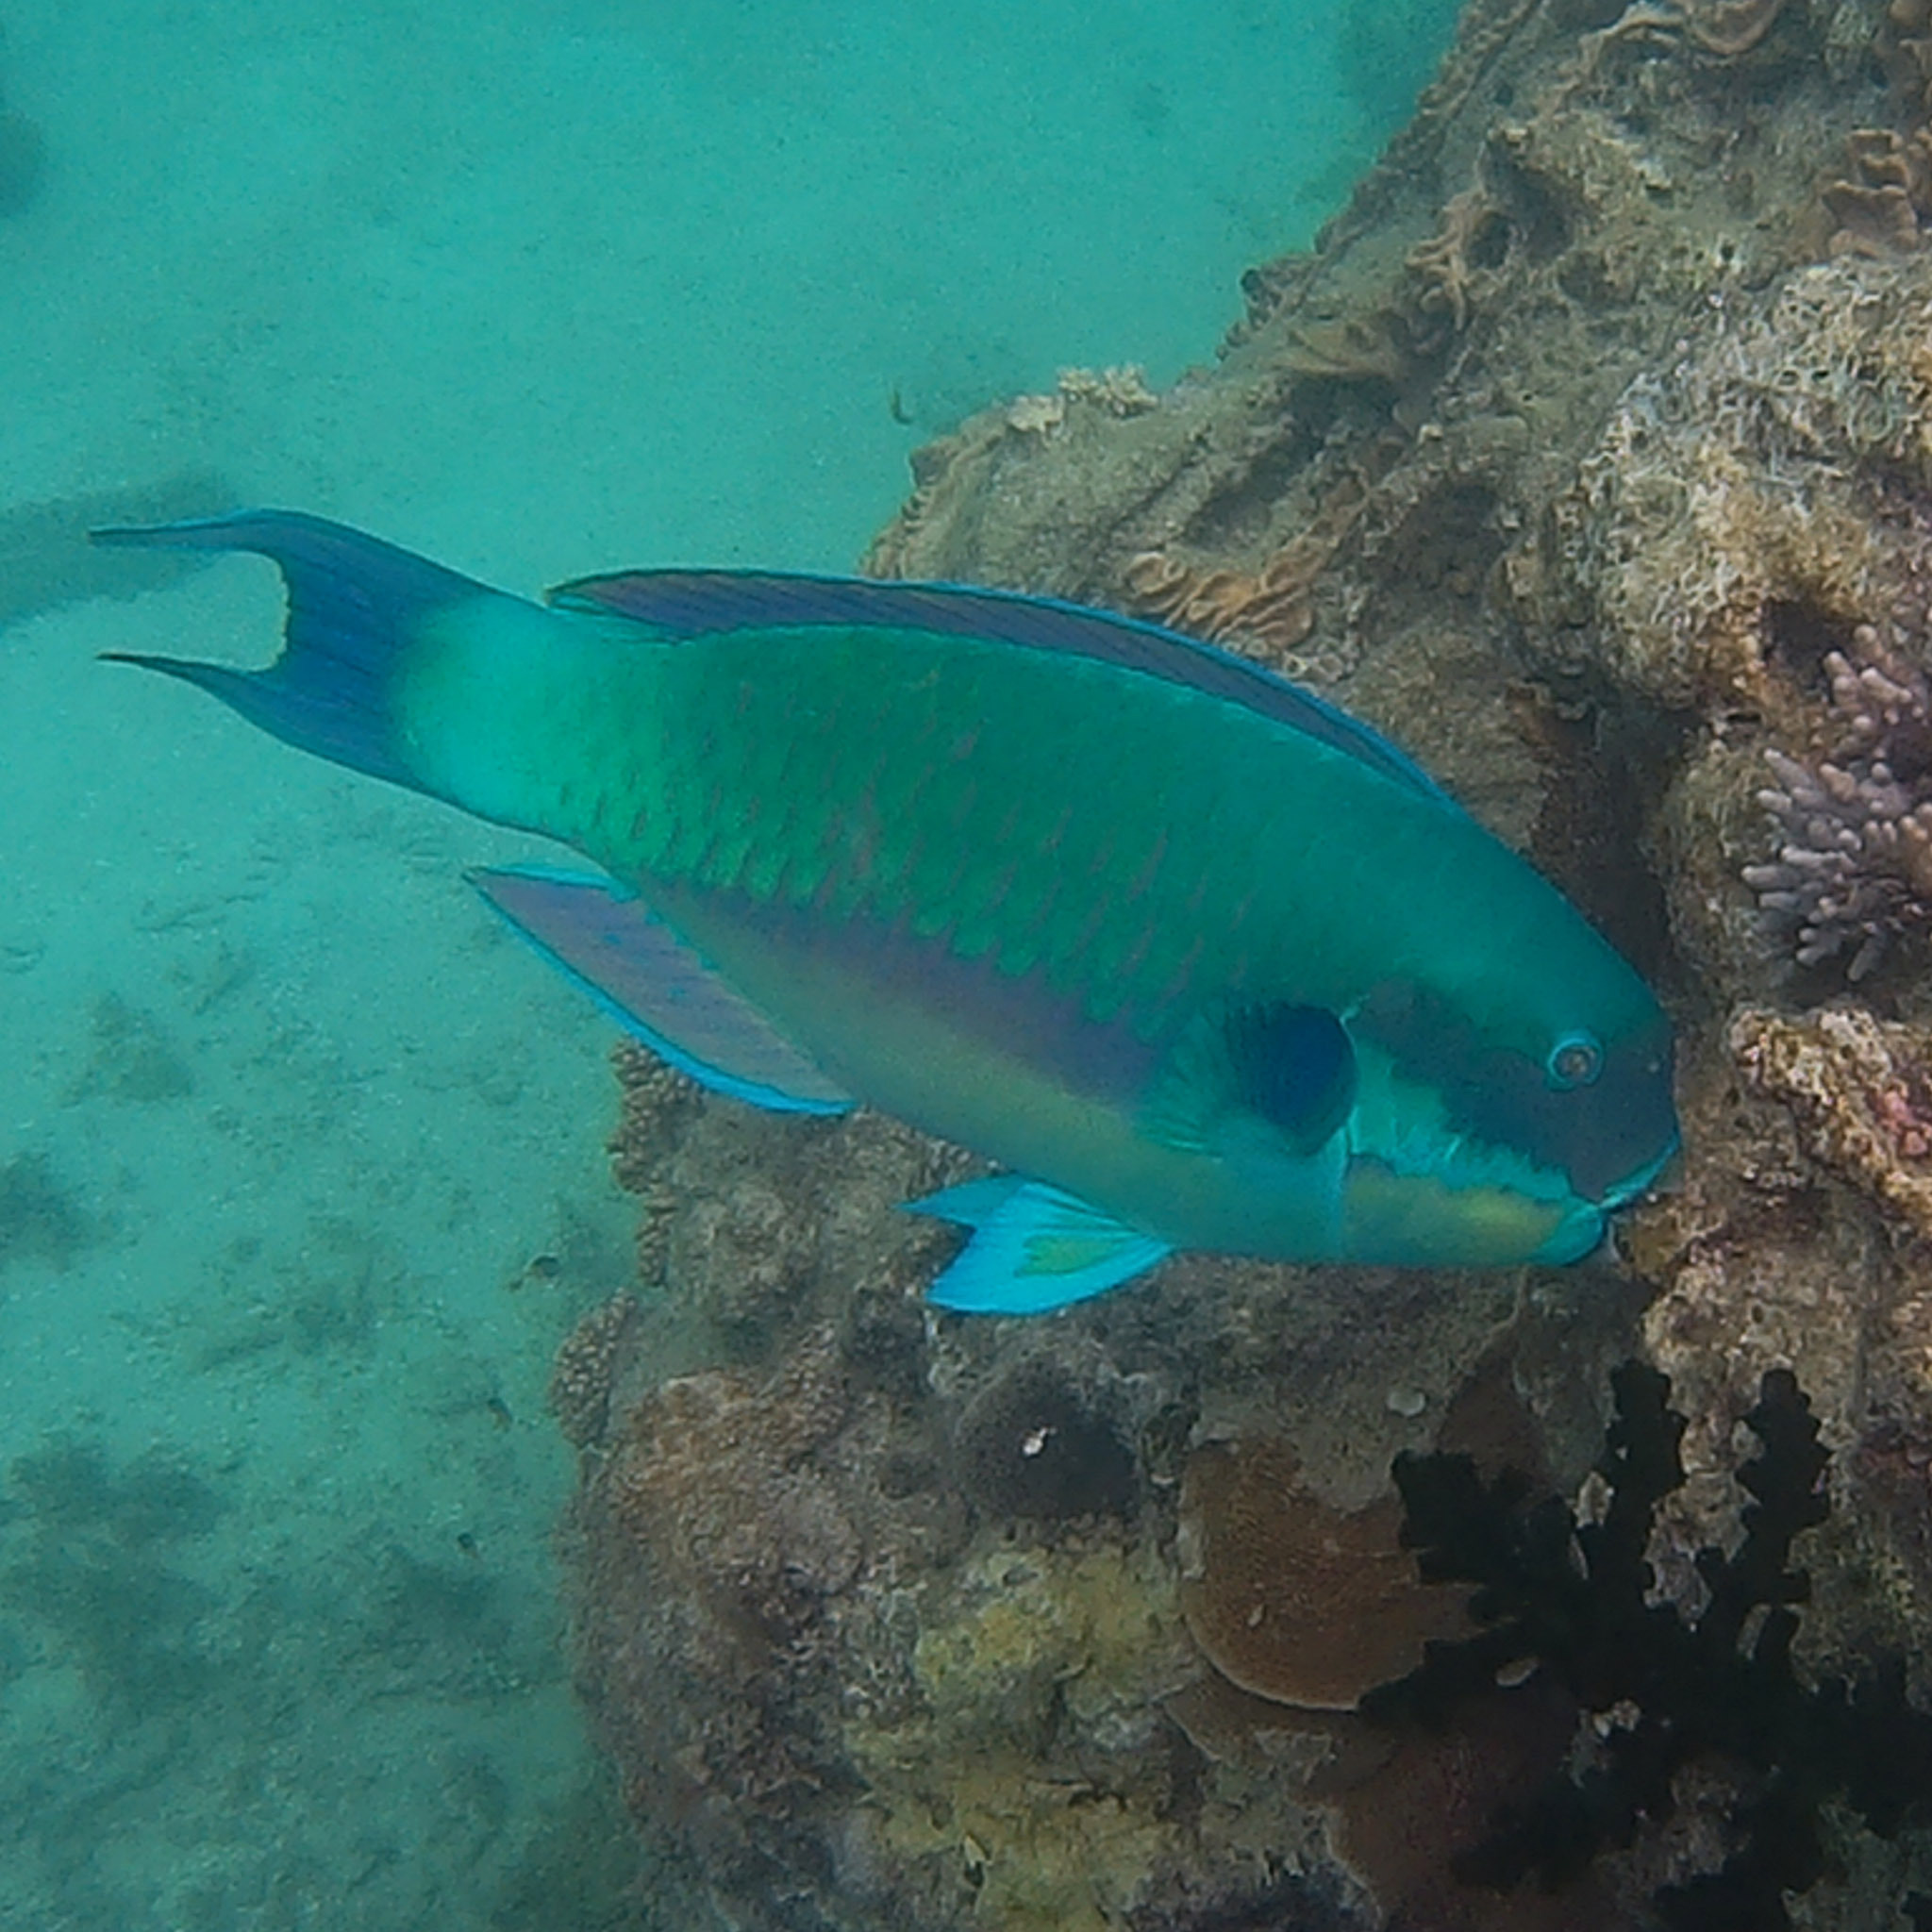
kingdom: Animalia
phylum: Chordata
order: Perciformes
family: Scaridae
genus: Chlorurus
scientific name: Chlorurus microrhinos
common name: Steephead parrotfish
